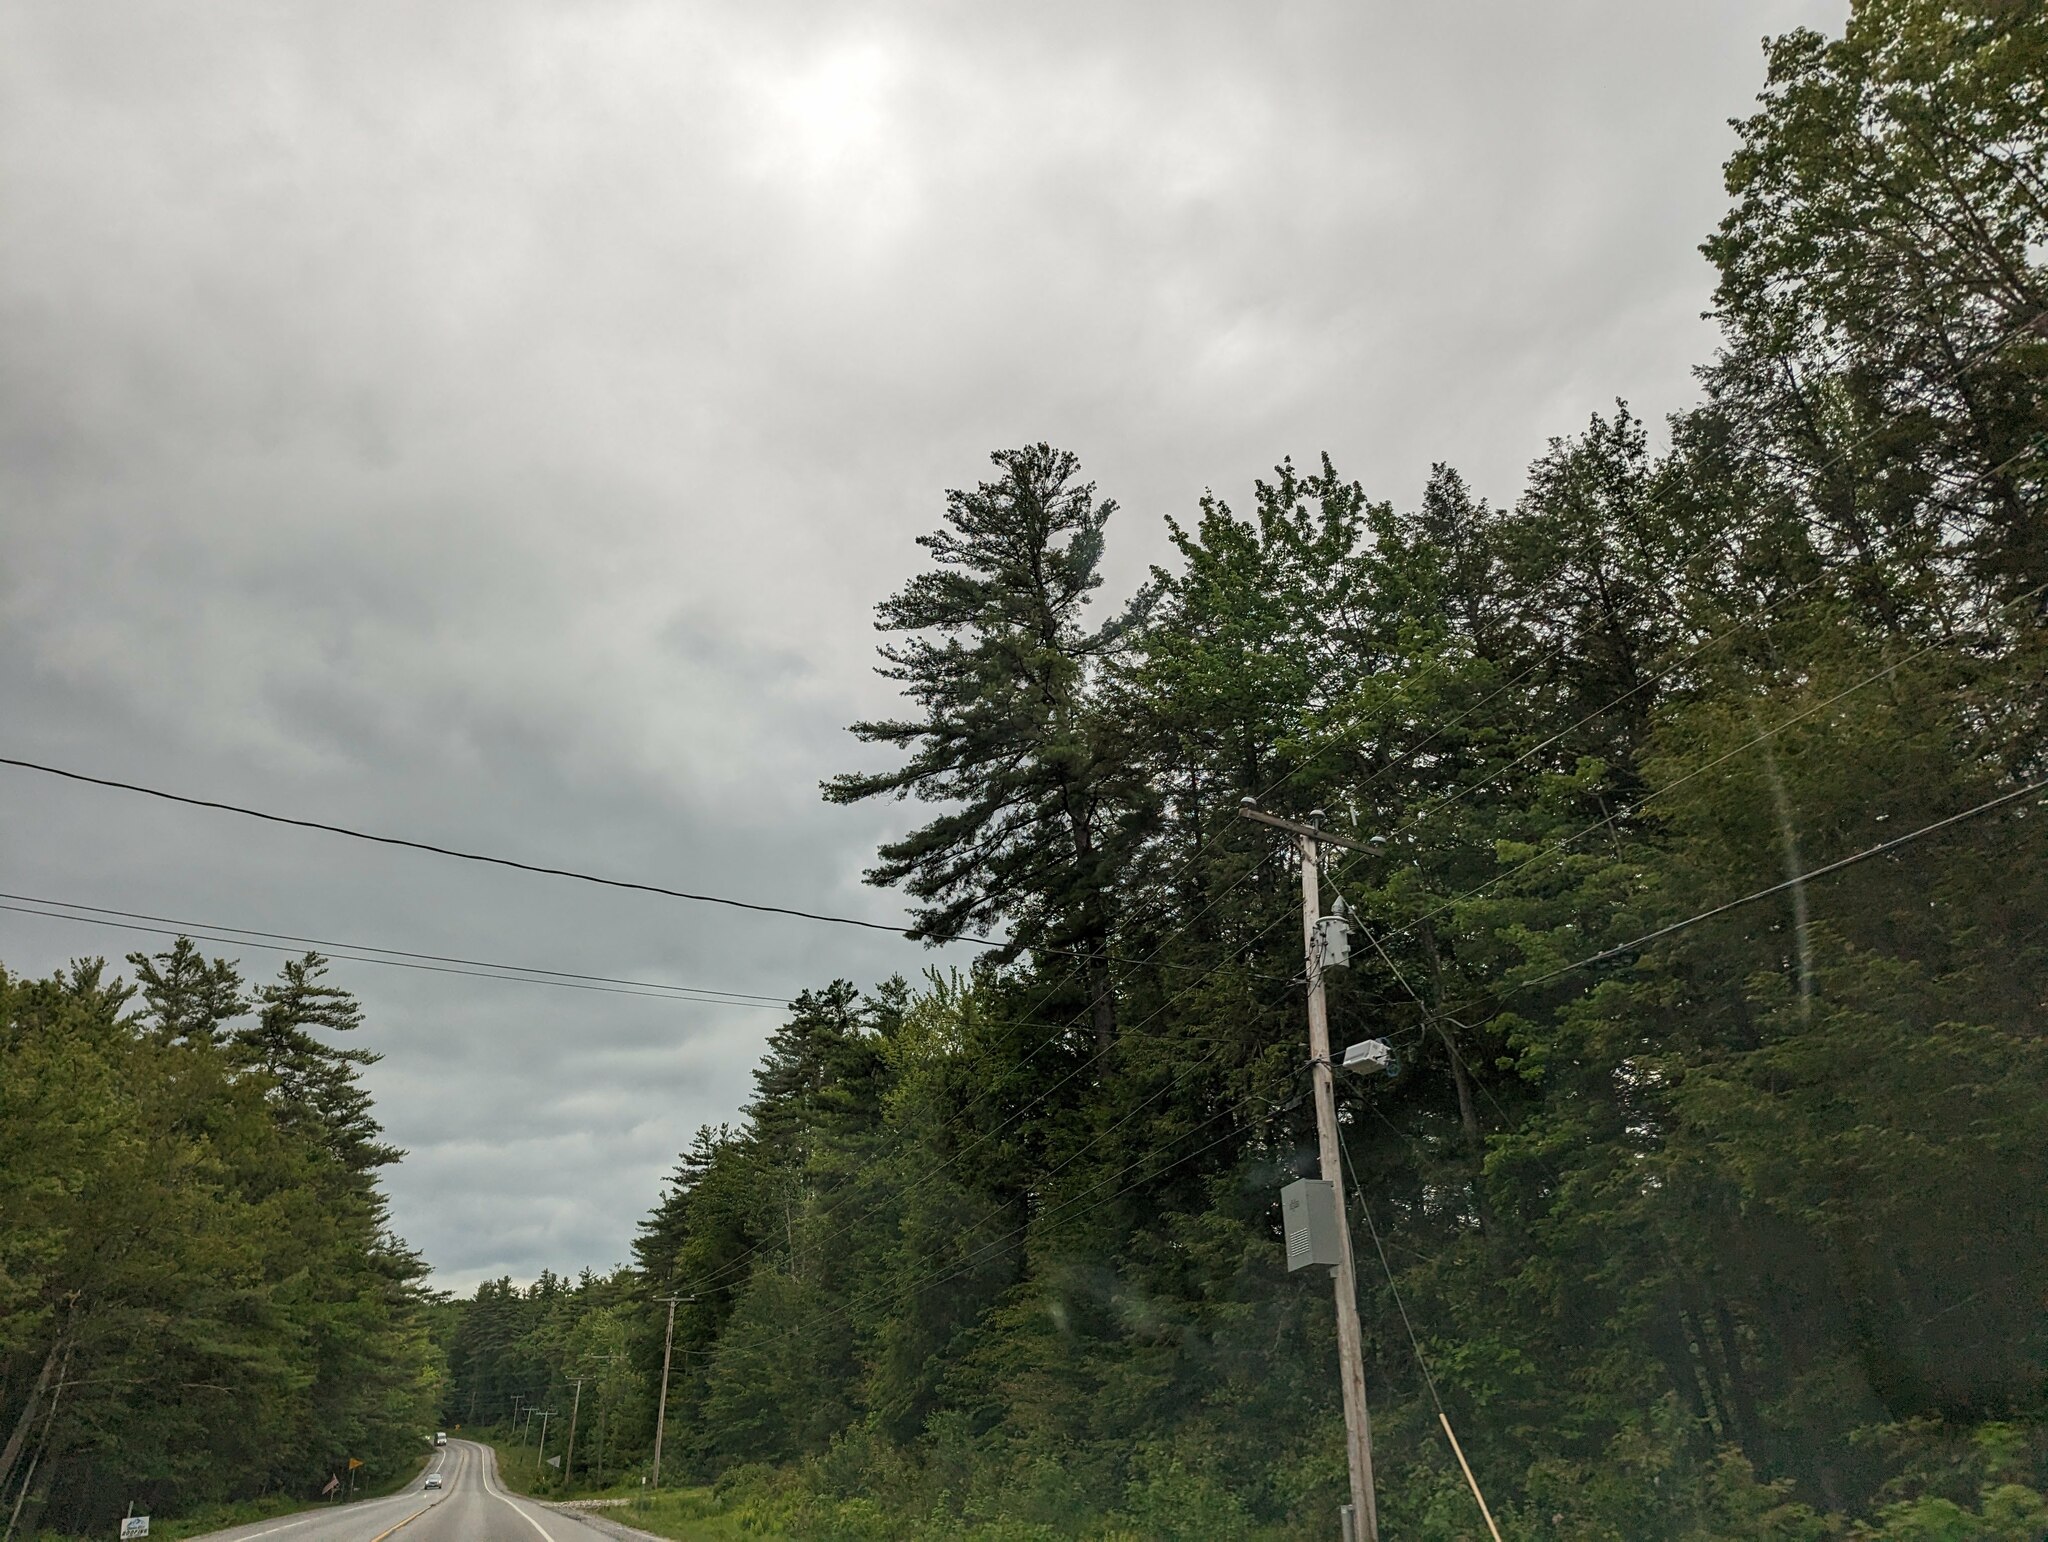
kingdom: Plantae
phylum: Tracheophyta
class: Pinopsida
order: Pinales
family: Pinaceae
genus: Pinus
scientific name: Pinus strobus
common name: Weymouth pine
